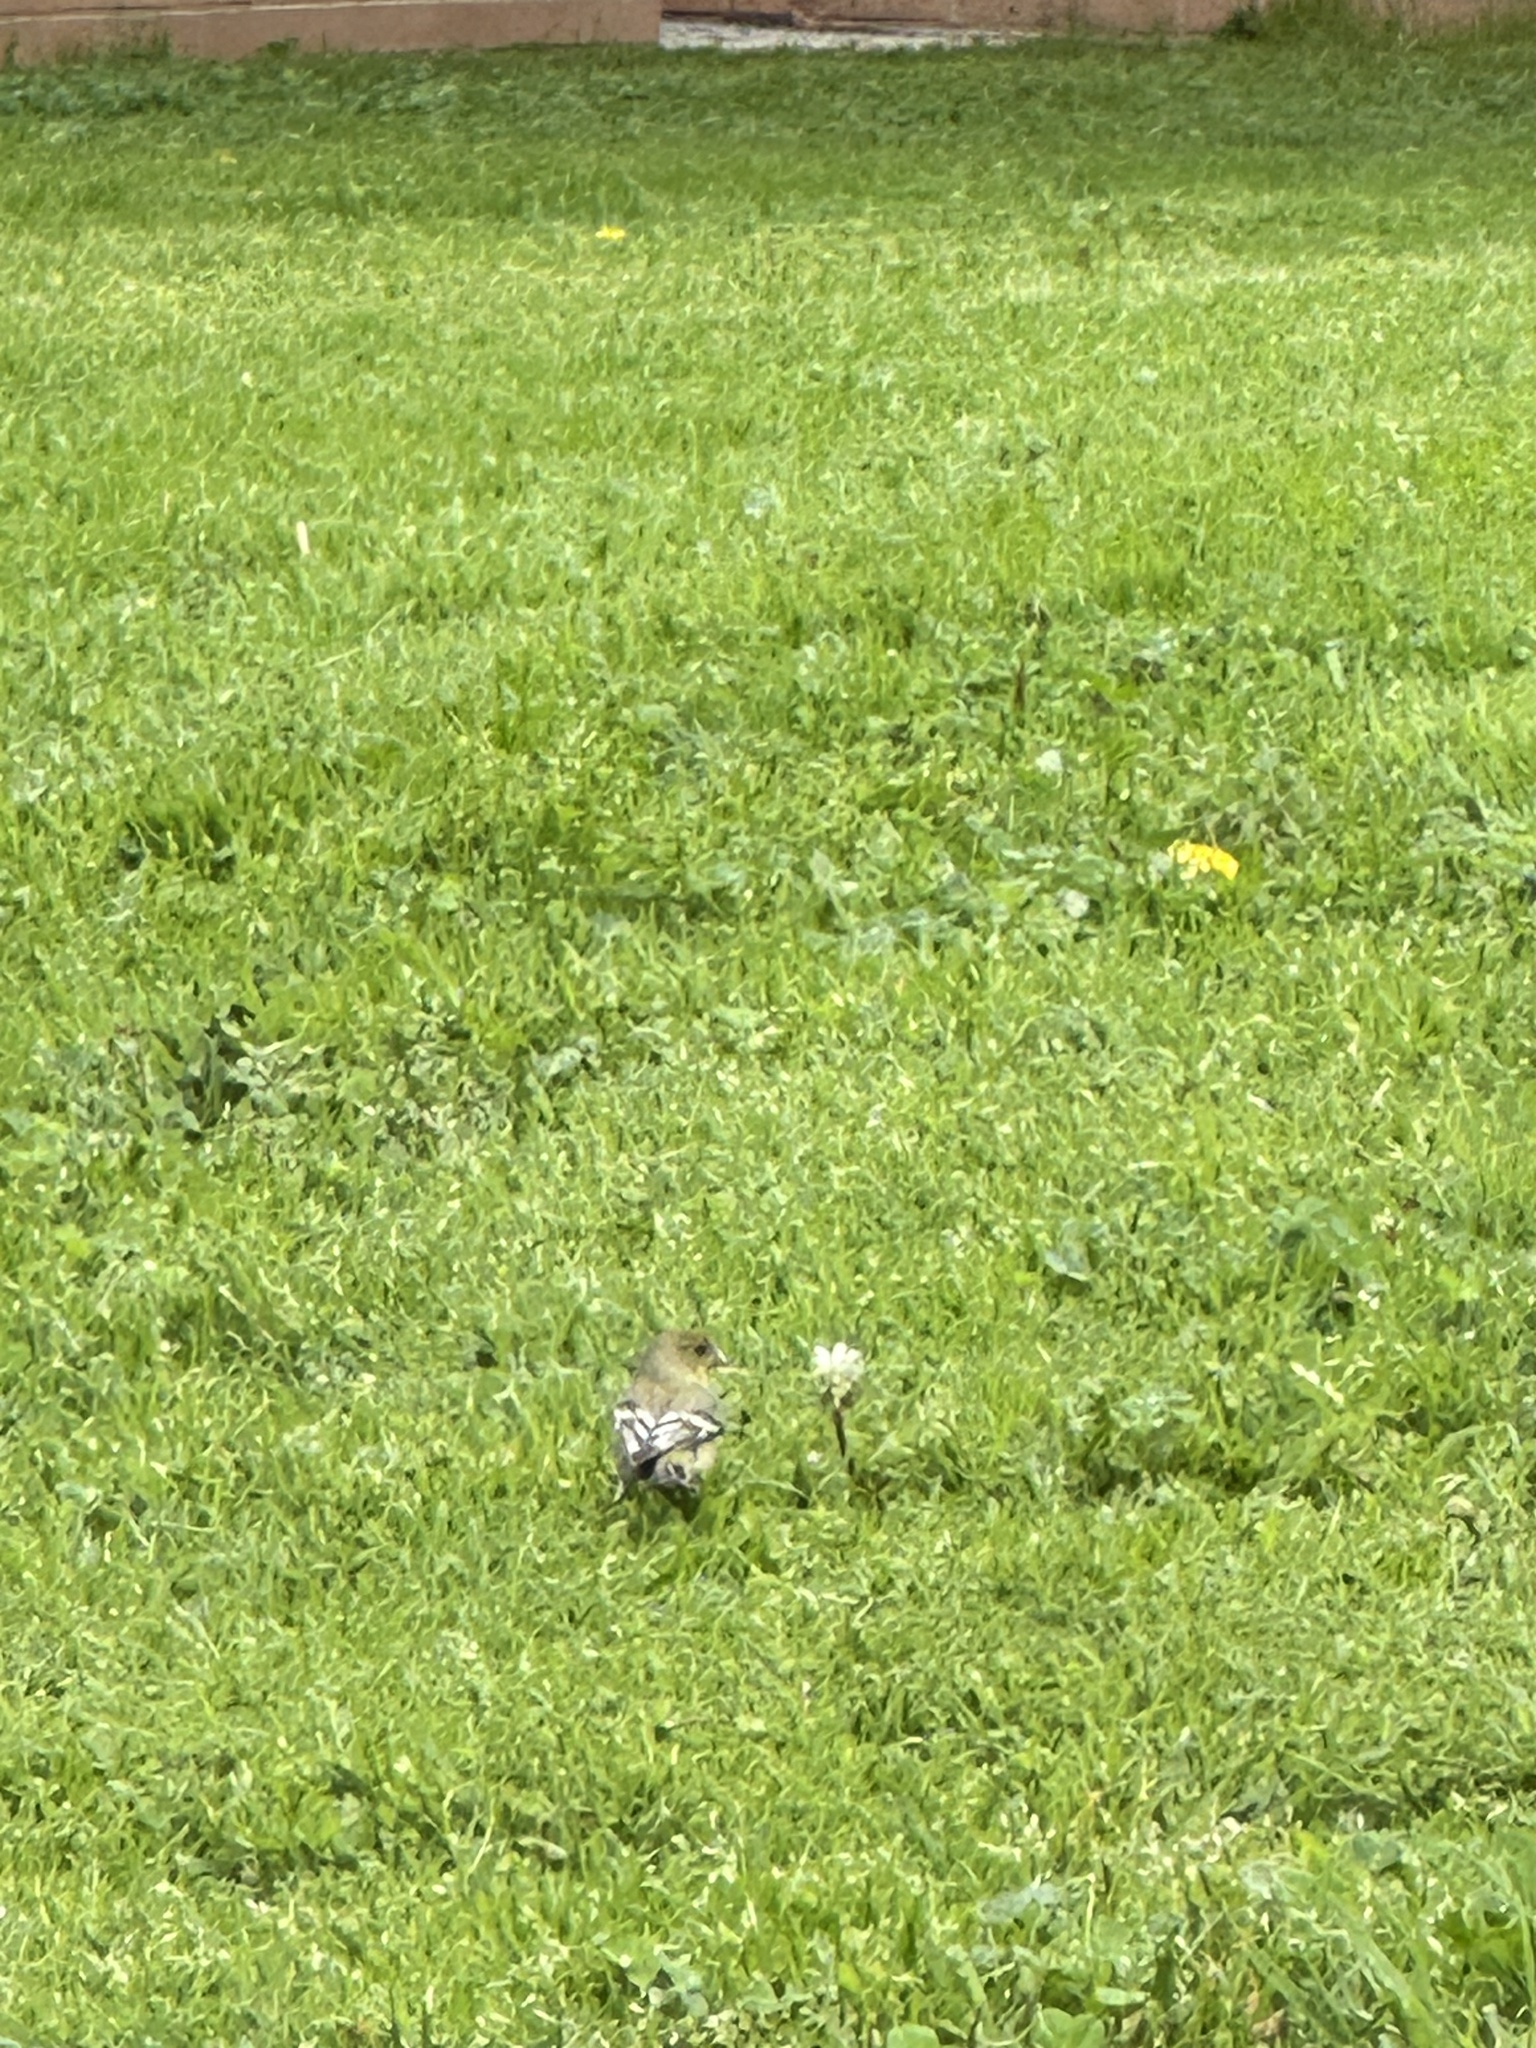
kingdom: Animalia
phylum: Chordata
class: Aves
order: Passeriformes
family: Fringillidae
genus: Spinus
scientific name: Spinus psaltria
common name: Lesser goldfinch
